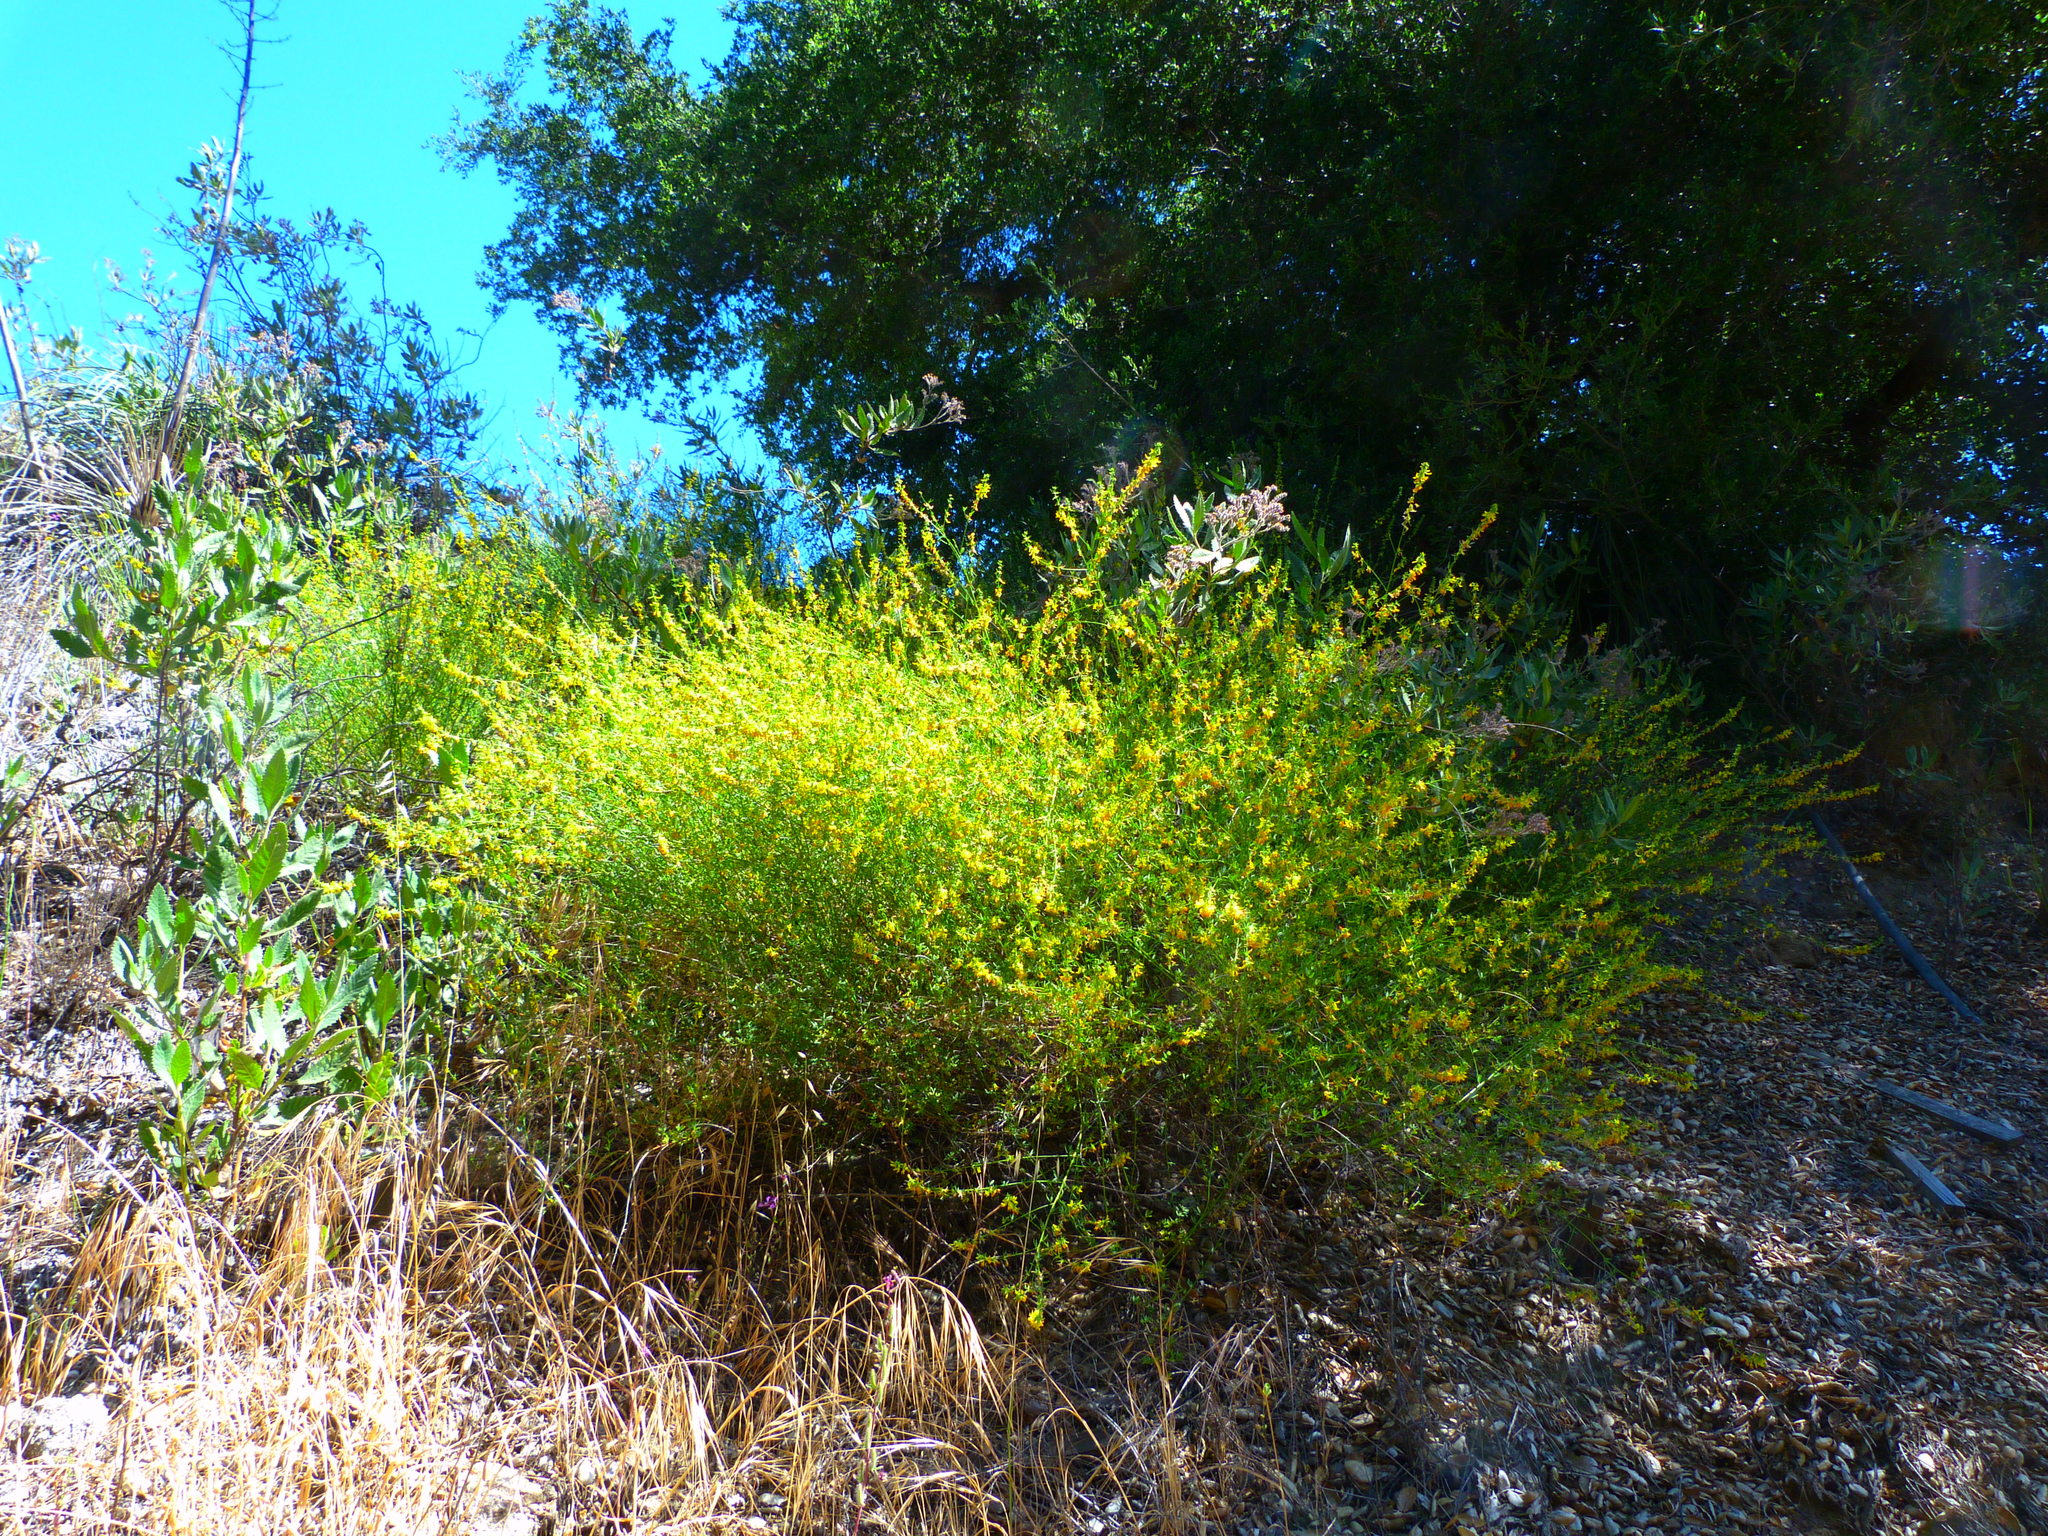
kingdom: Plantae
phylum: Tracheophyta
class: Magnoliopsida
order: Fabales
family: Fabaceae
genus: Acmispon
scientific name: Acmispon glaber
